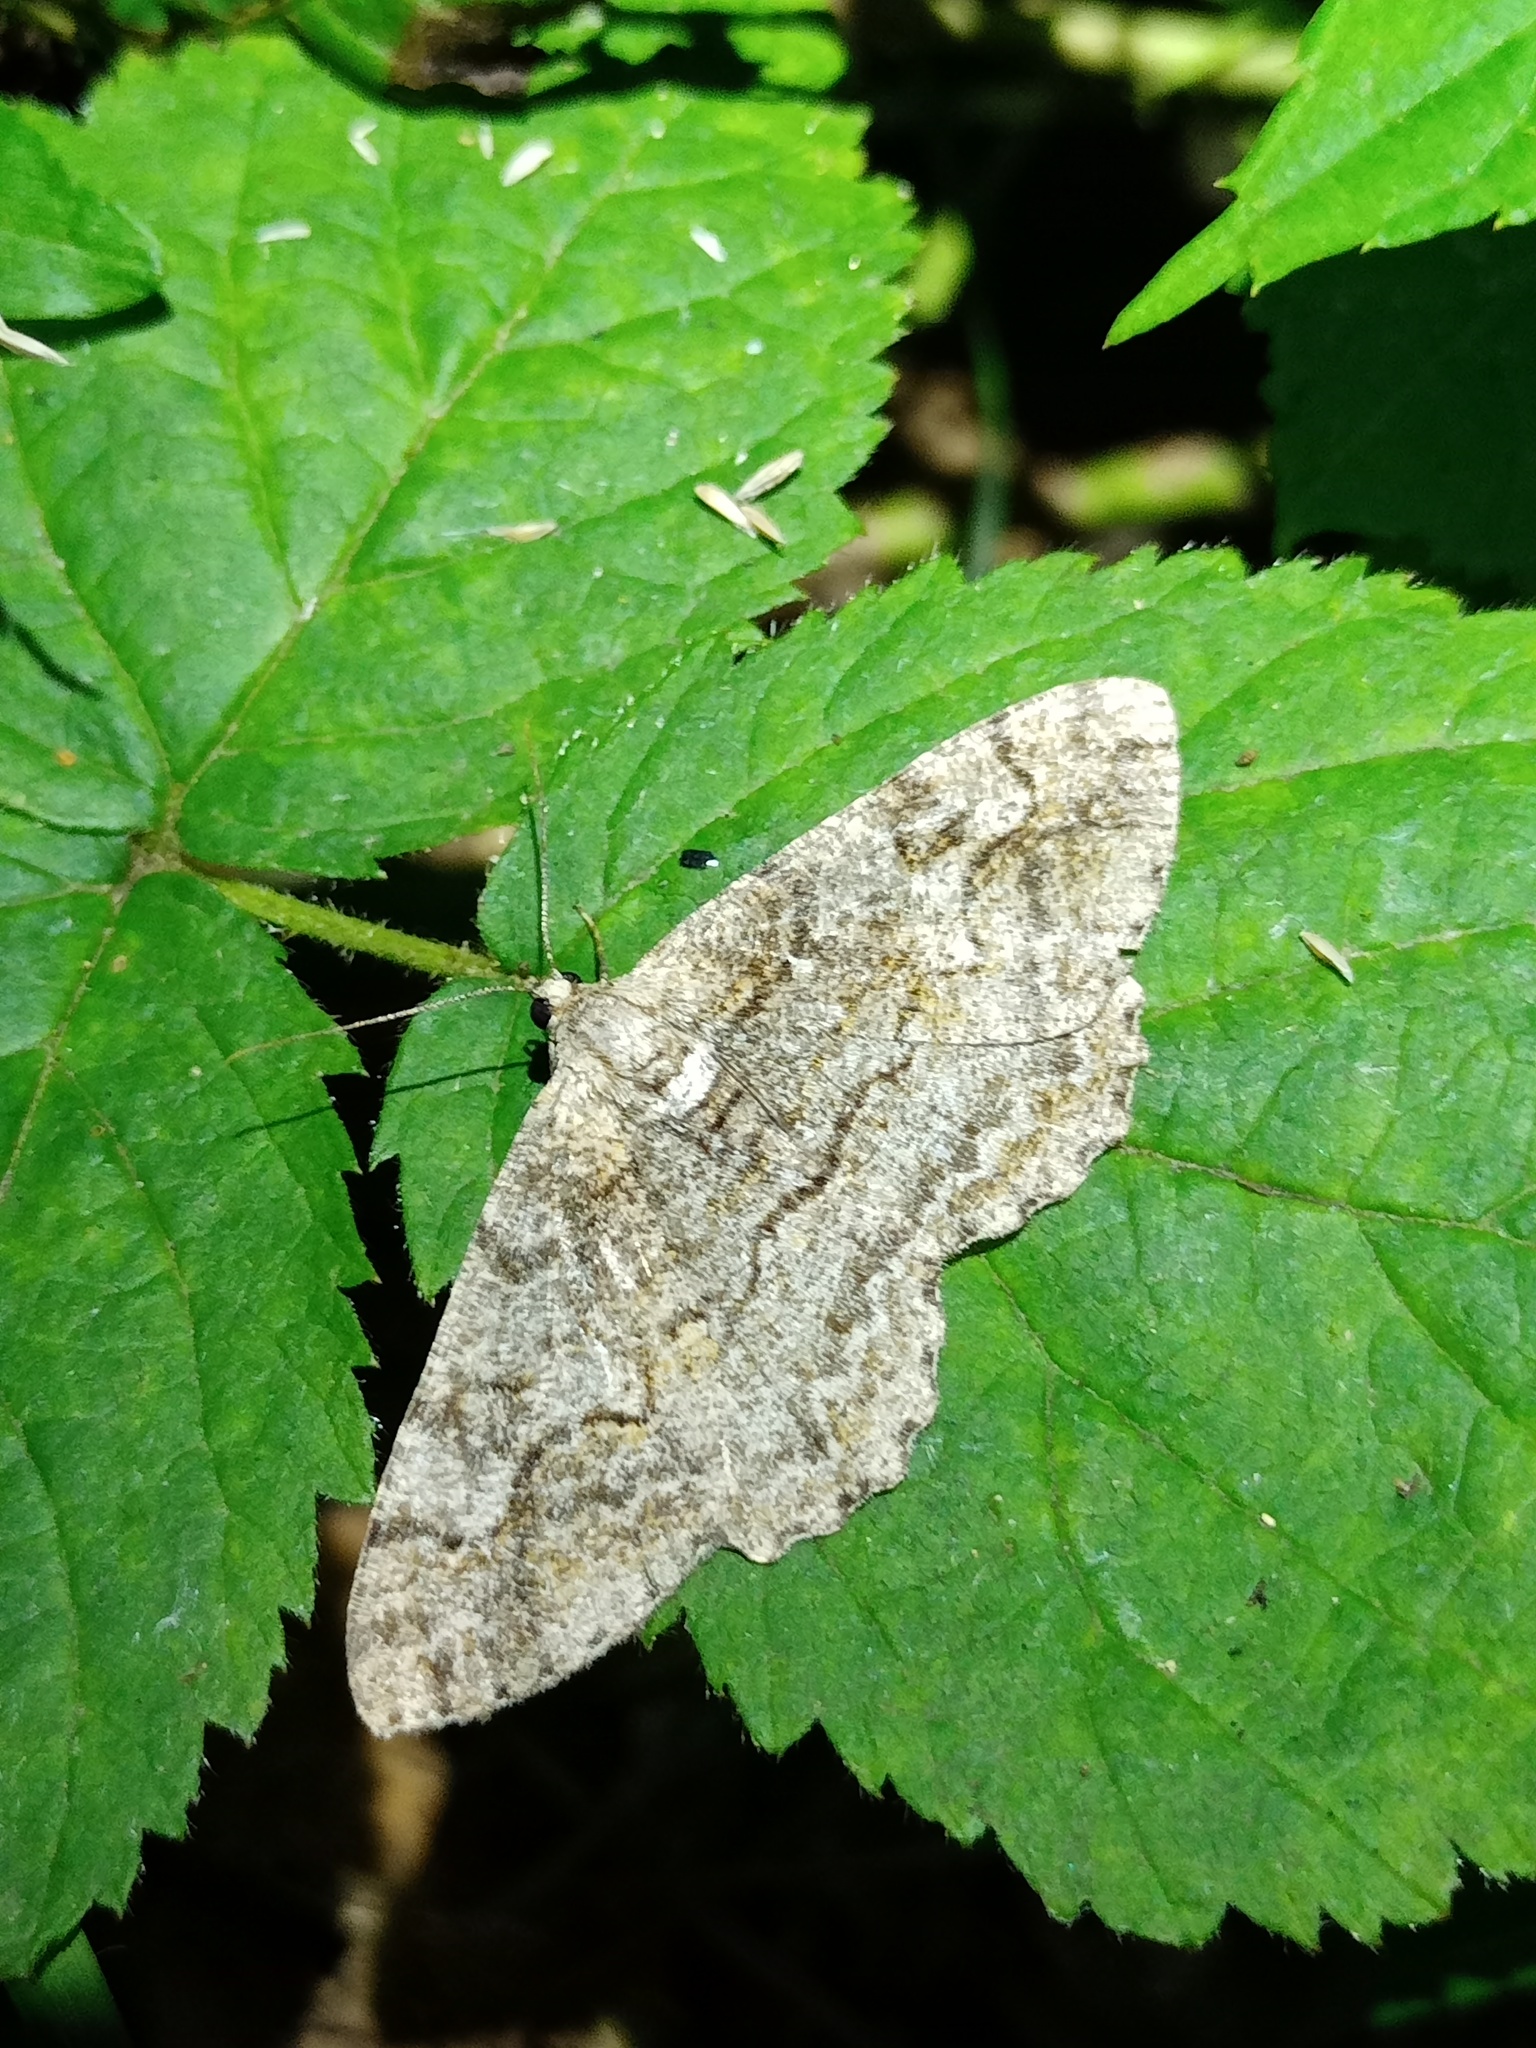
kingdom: Animalia
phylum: Arthropoda
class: Insecta
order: Lepidoptera
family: Geometridae
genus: Alcis
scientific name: Alcis repandata
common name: Mottled beauty
